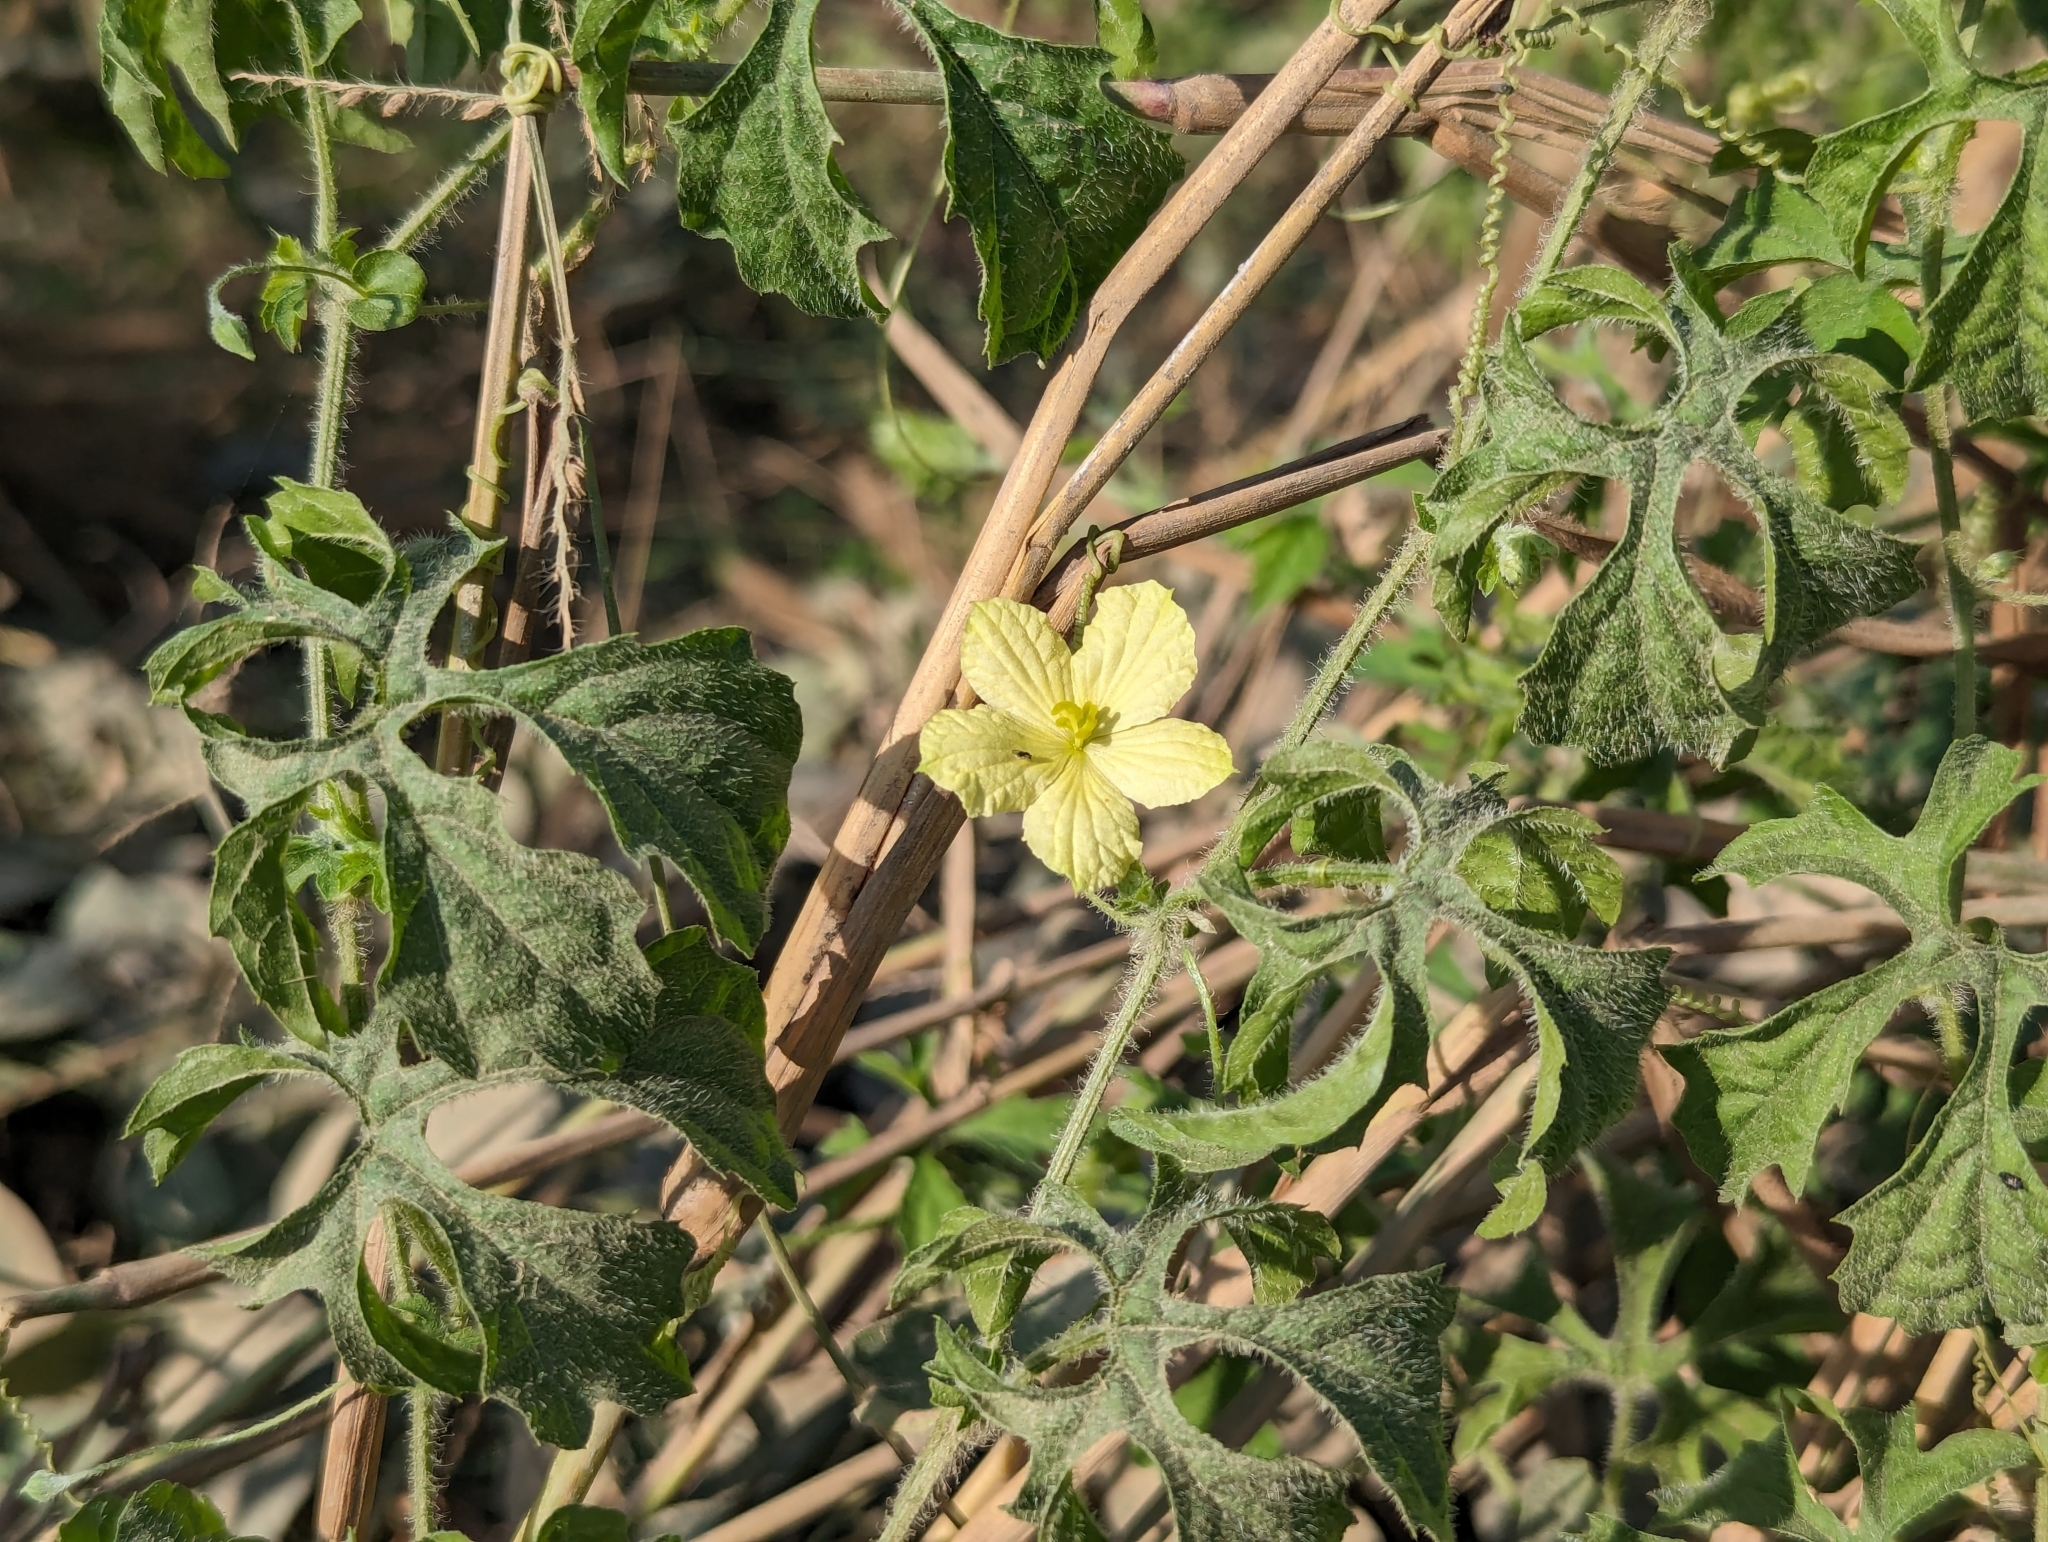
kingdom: Plantae
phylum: Tracheophyta
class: Magnoliopsida
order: Cucurbitales
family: Cucurbitaceae
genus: Momordica
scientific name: Momordica charantia
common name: Balsampear
